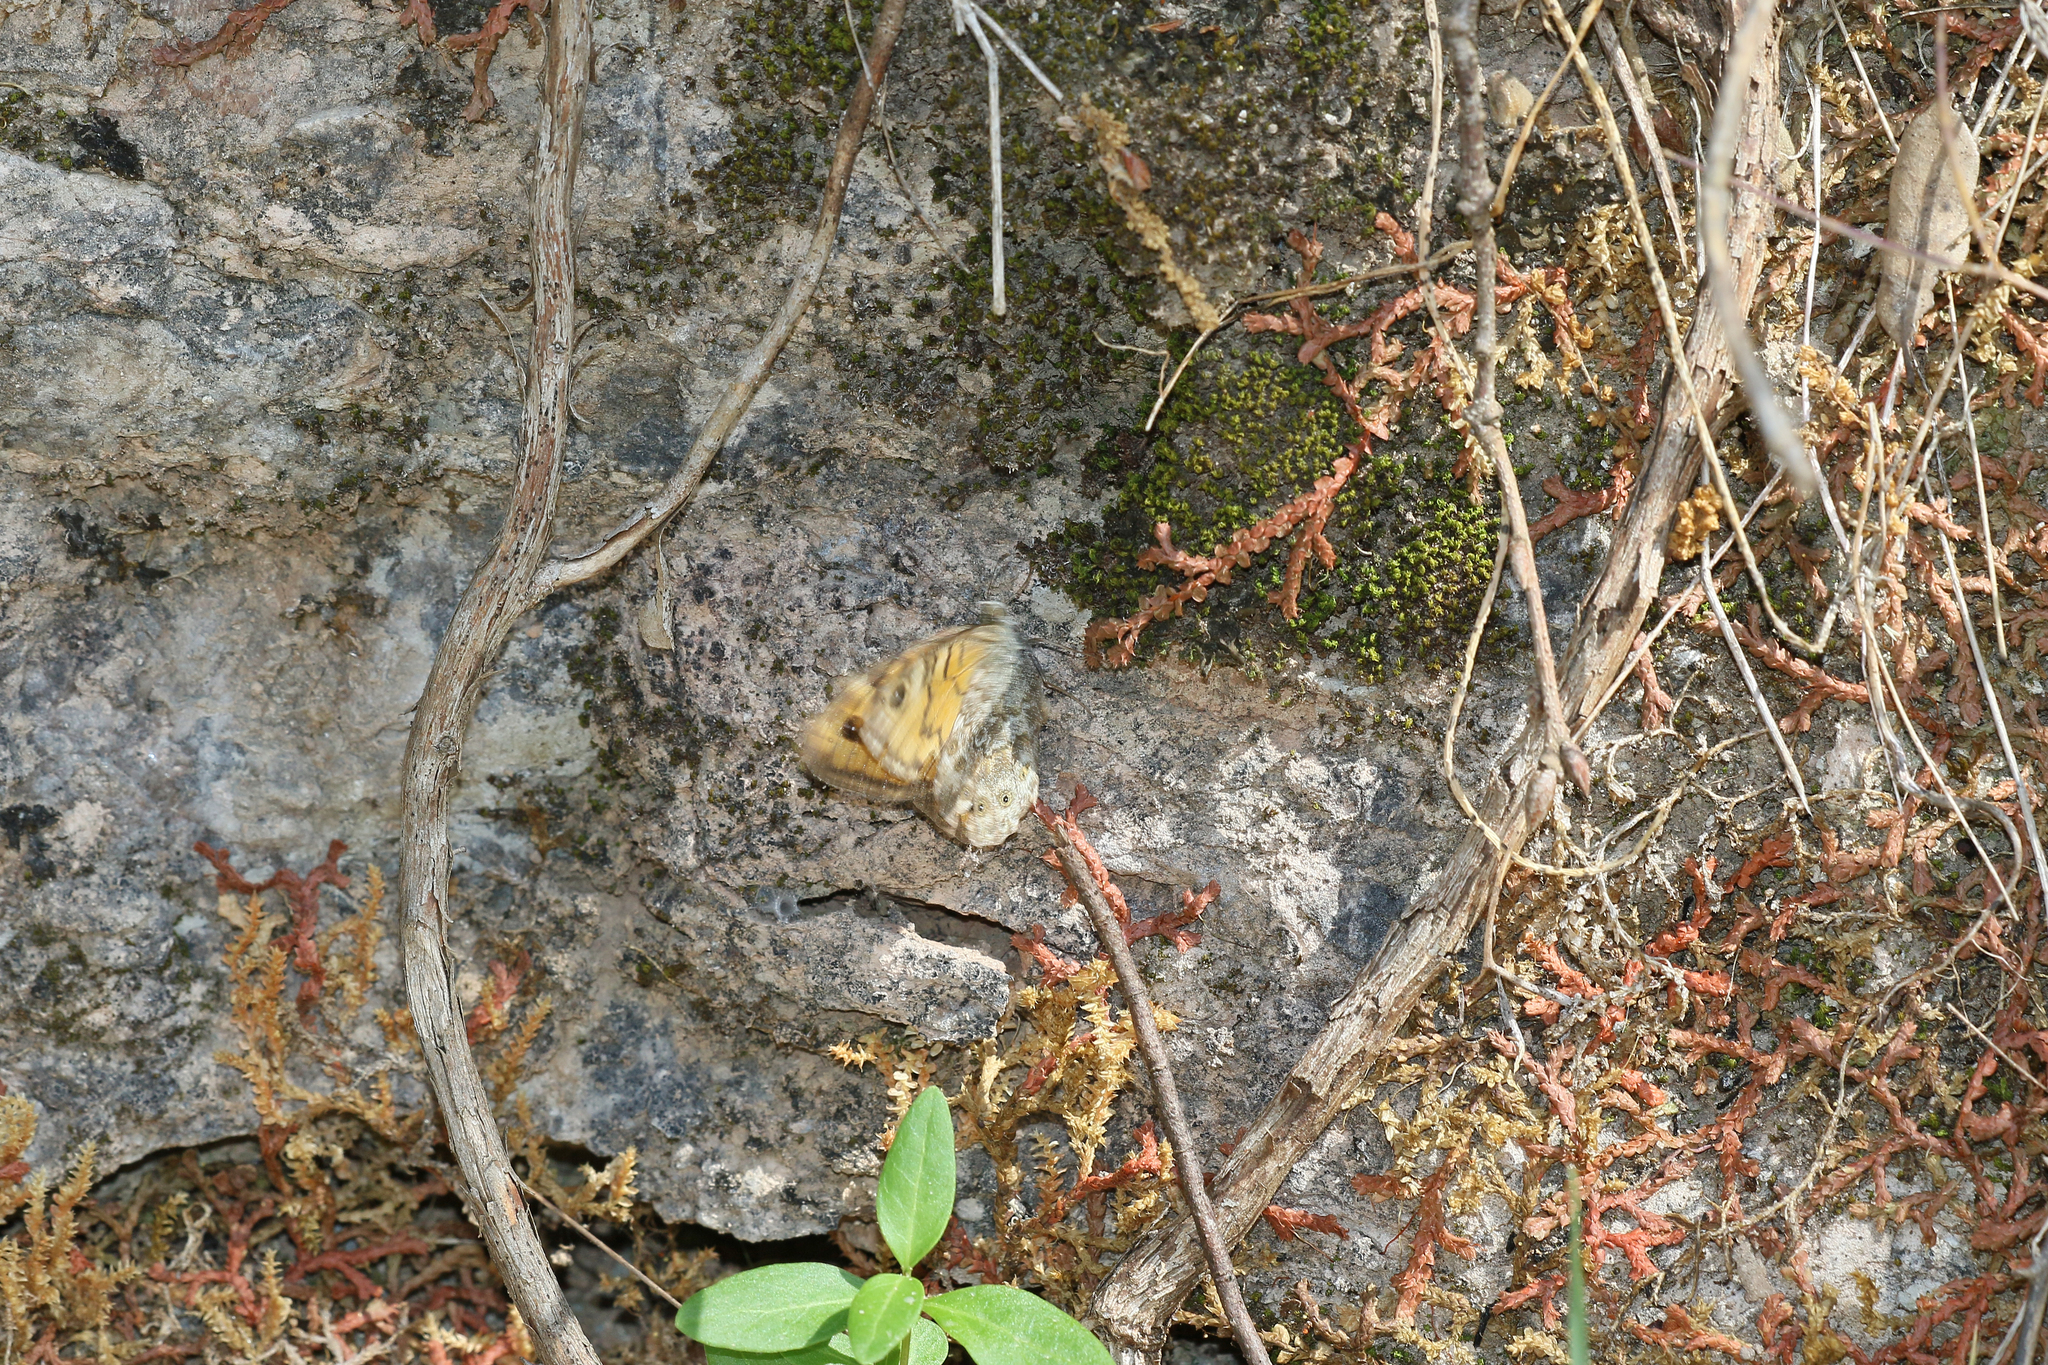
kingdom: Animalia
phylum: Arthropoda
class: Insecta
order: Lepidoptera
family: Nymphalidae
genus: Pararge
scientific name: Pararge Lasiommata megera
